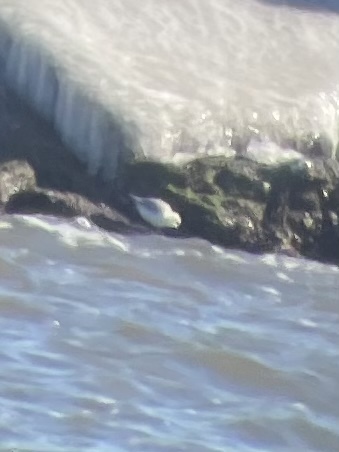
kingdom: Animalia
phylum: Chordata
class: Aves
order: Charadriiformes
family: Scolopacidae
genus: Calidris
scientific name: Calidris alba
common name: Sanderling
